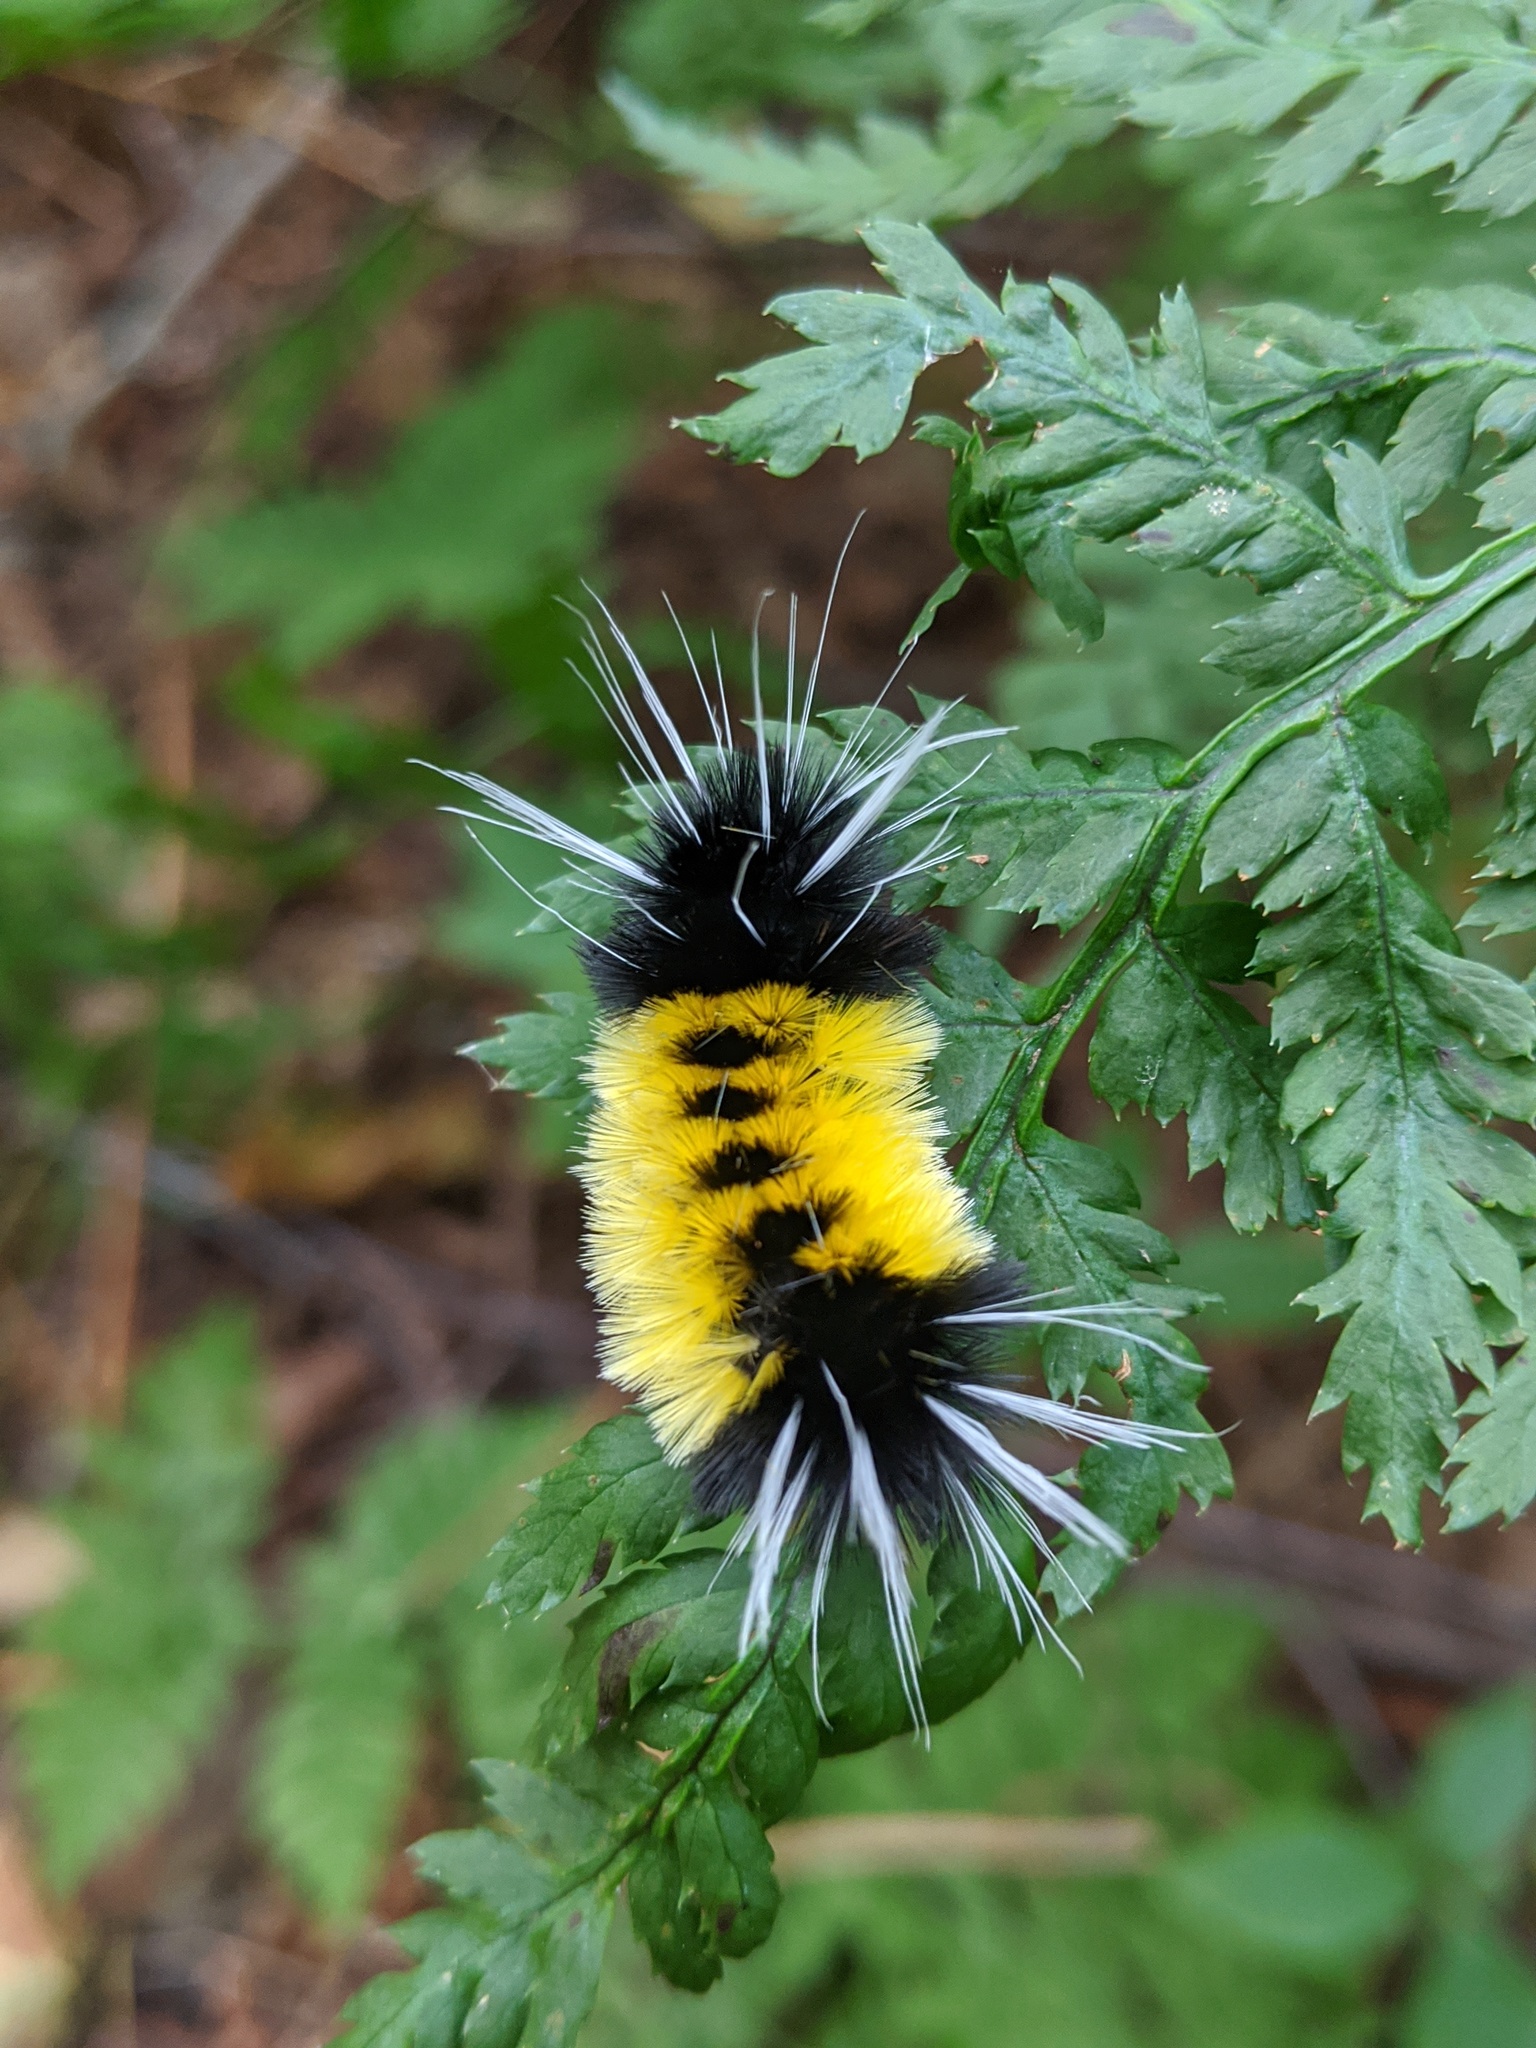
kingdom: Animalia
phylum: Arthropoda
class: Insecta
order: Lepidoptera
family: Erebidae
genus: Lophocampa
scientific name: Lophocampa maculata
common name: Spotted tussock moth
